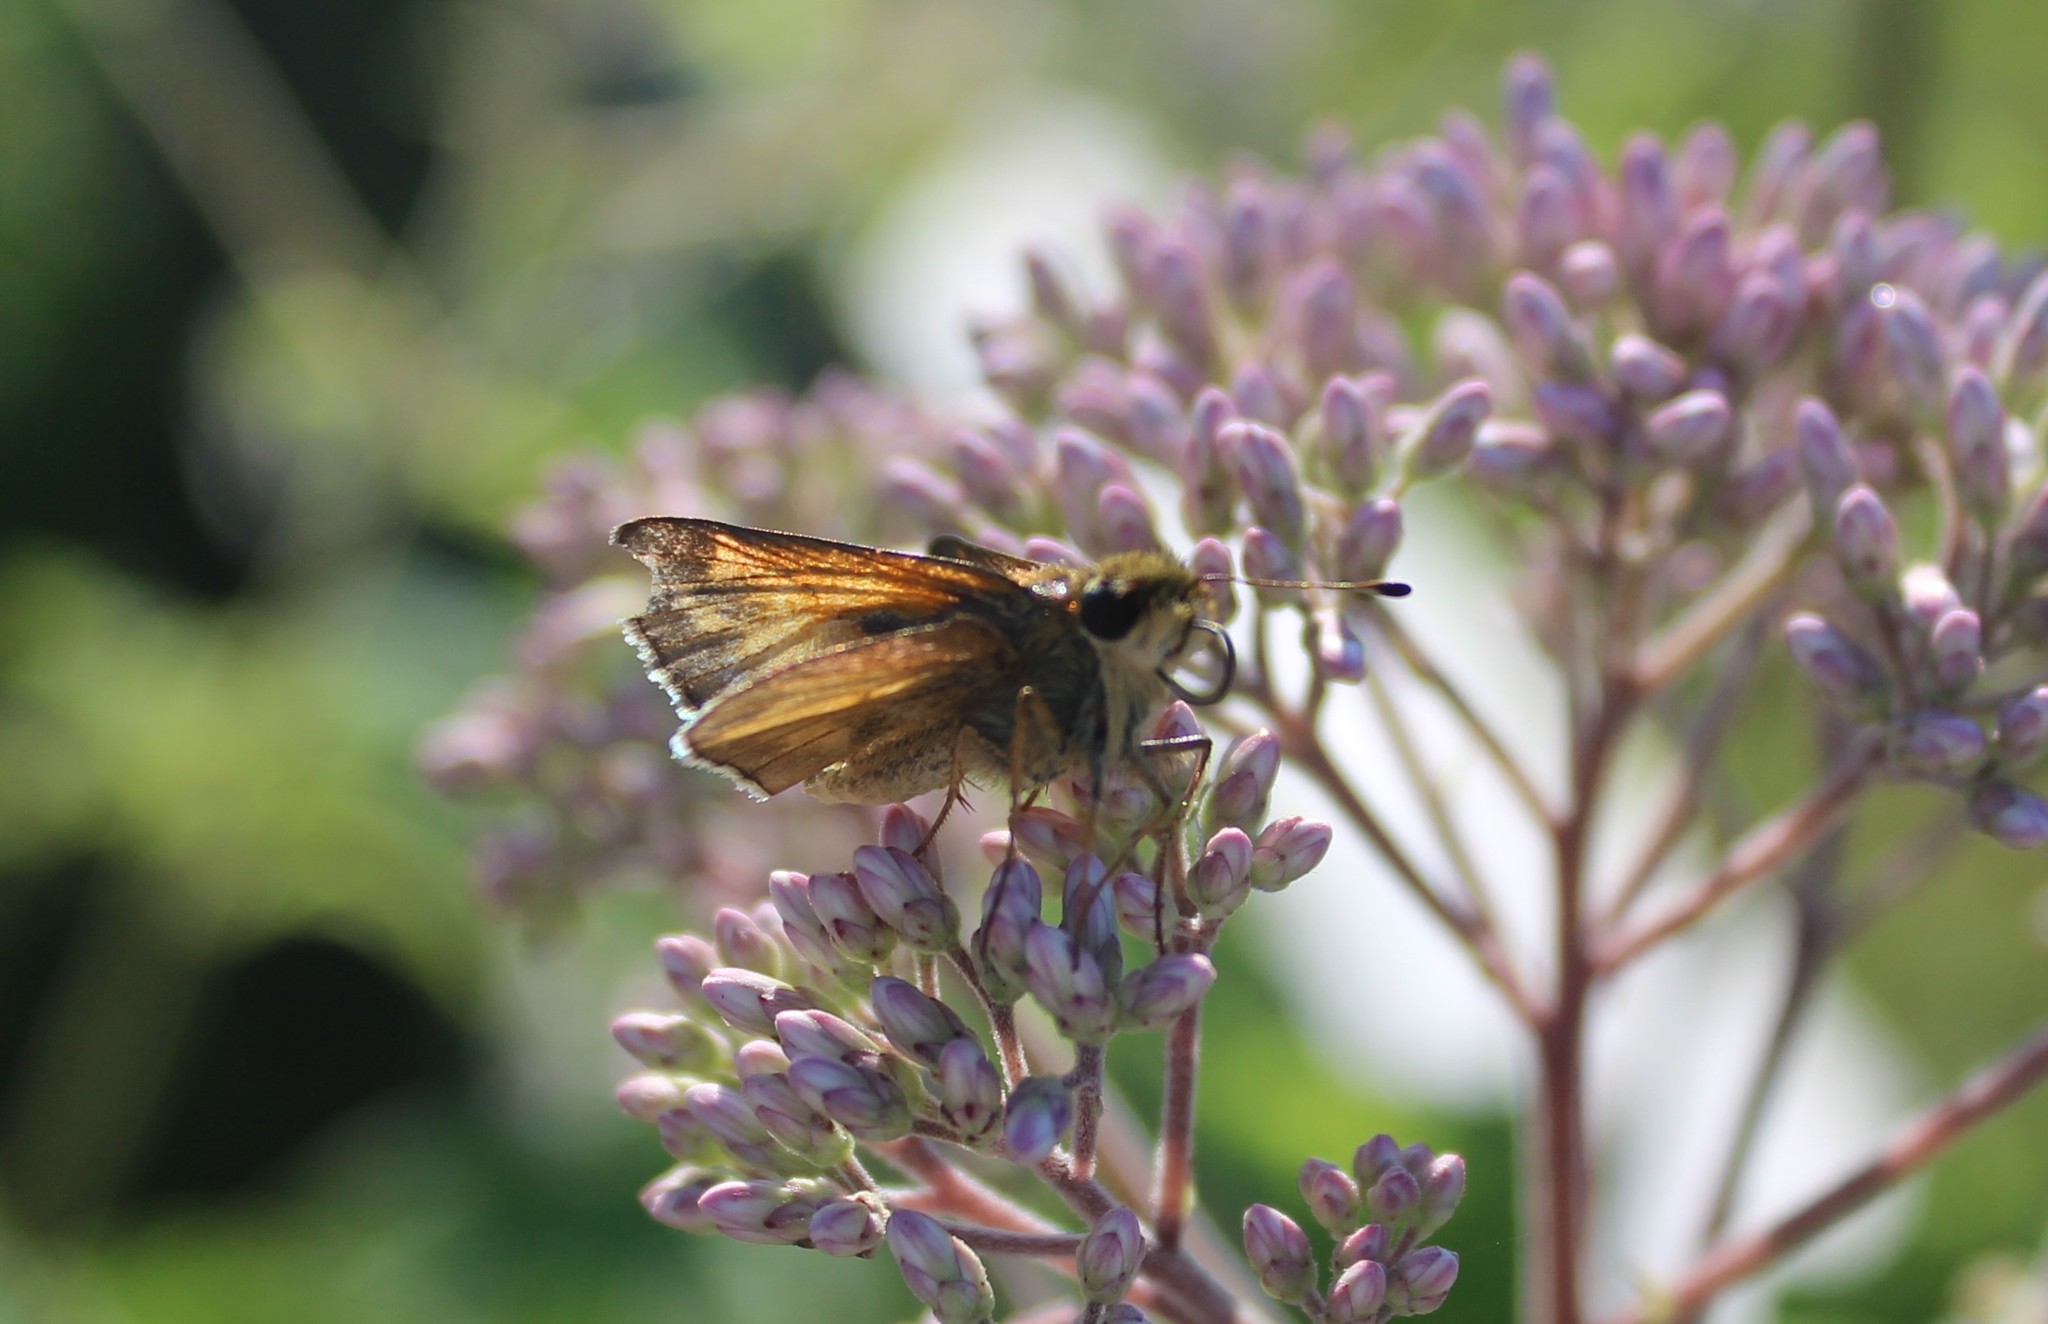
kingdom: Animalia
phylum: Arthropoda
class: Insecta
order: Lepidoptera
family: Hesperiidae
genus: Atalopedes
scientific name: Atalopedes
